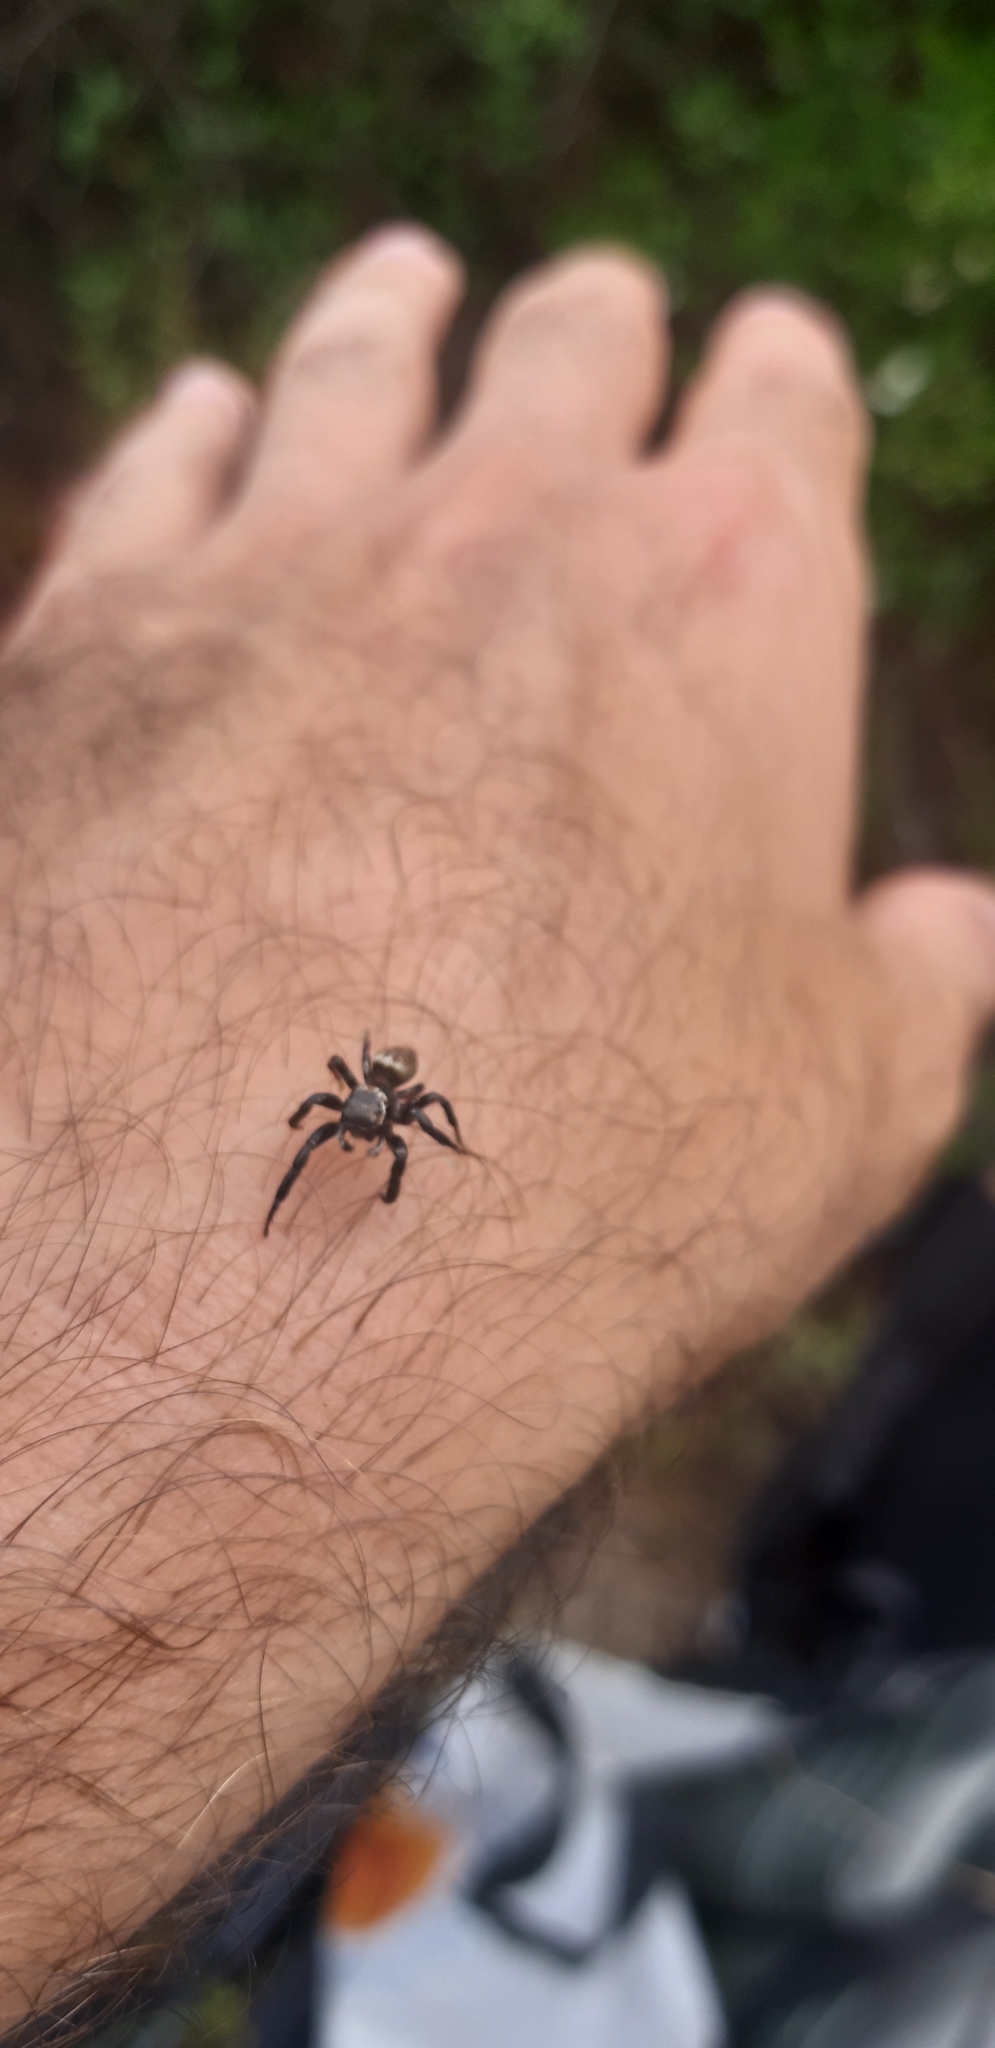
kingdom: Animalia
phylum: Arthropoda
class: Arachnida
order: Araneae
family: Salticidae
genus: Evarcha
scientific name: Evarcha jucunda
